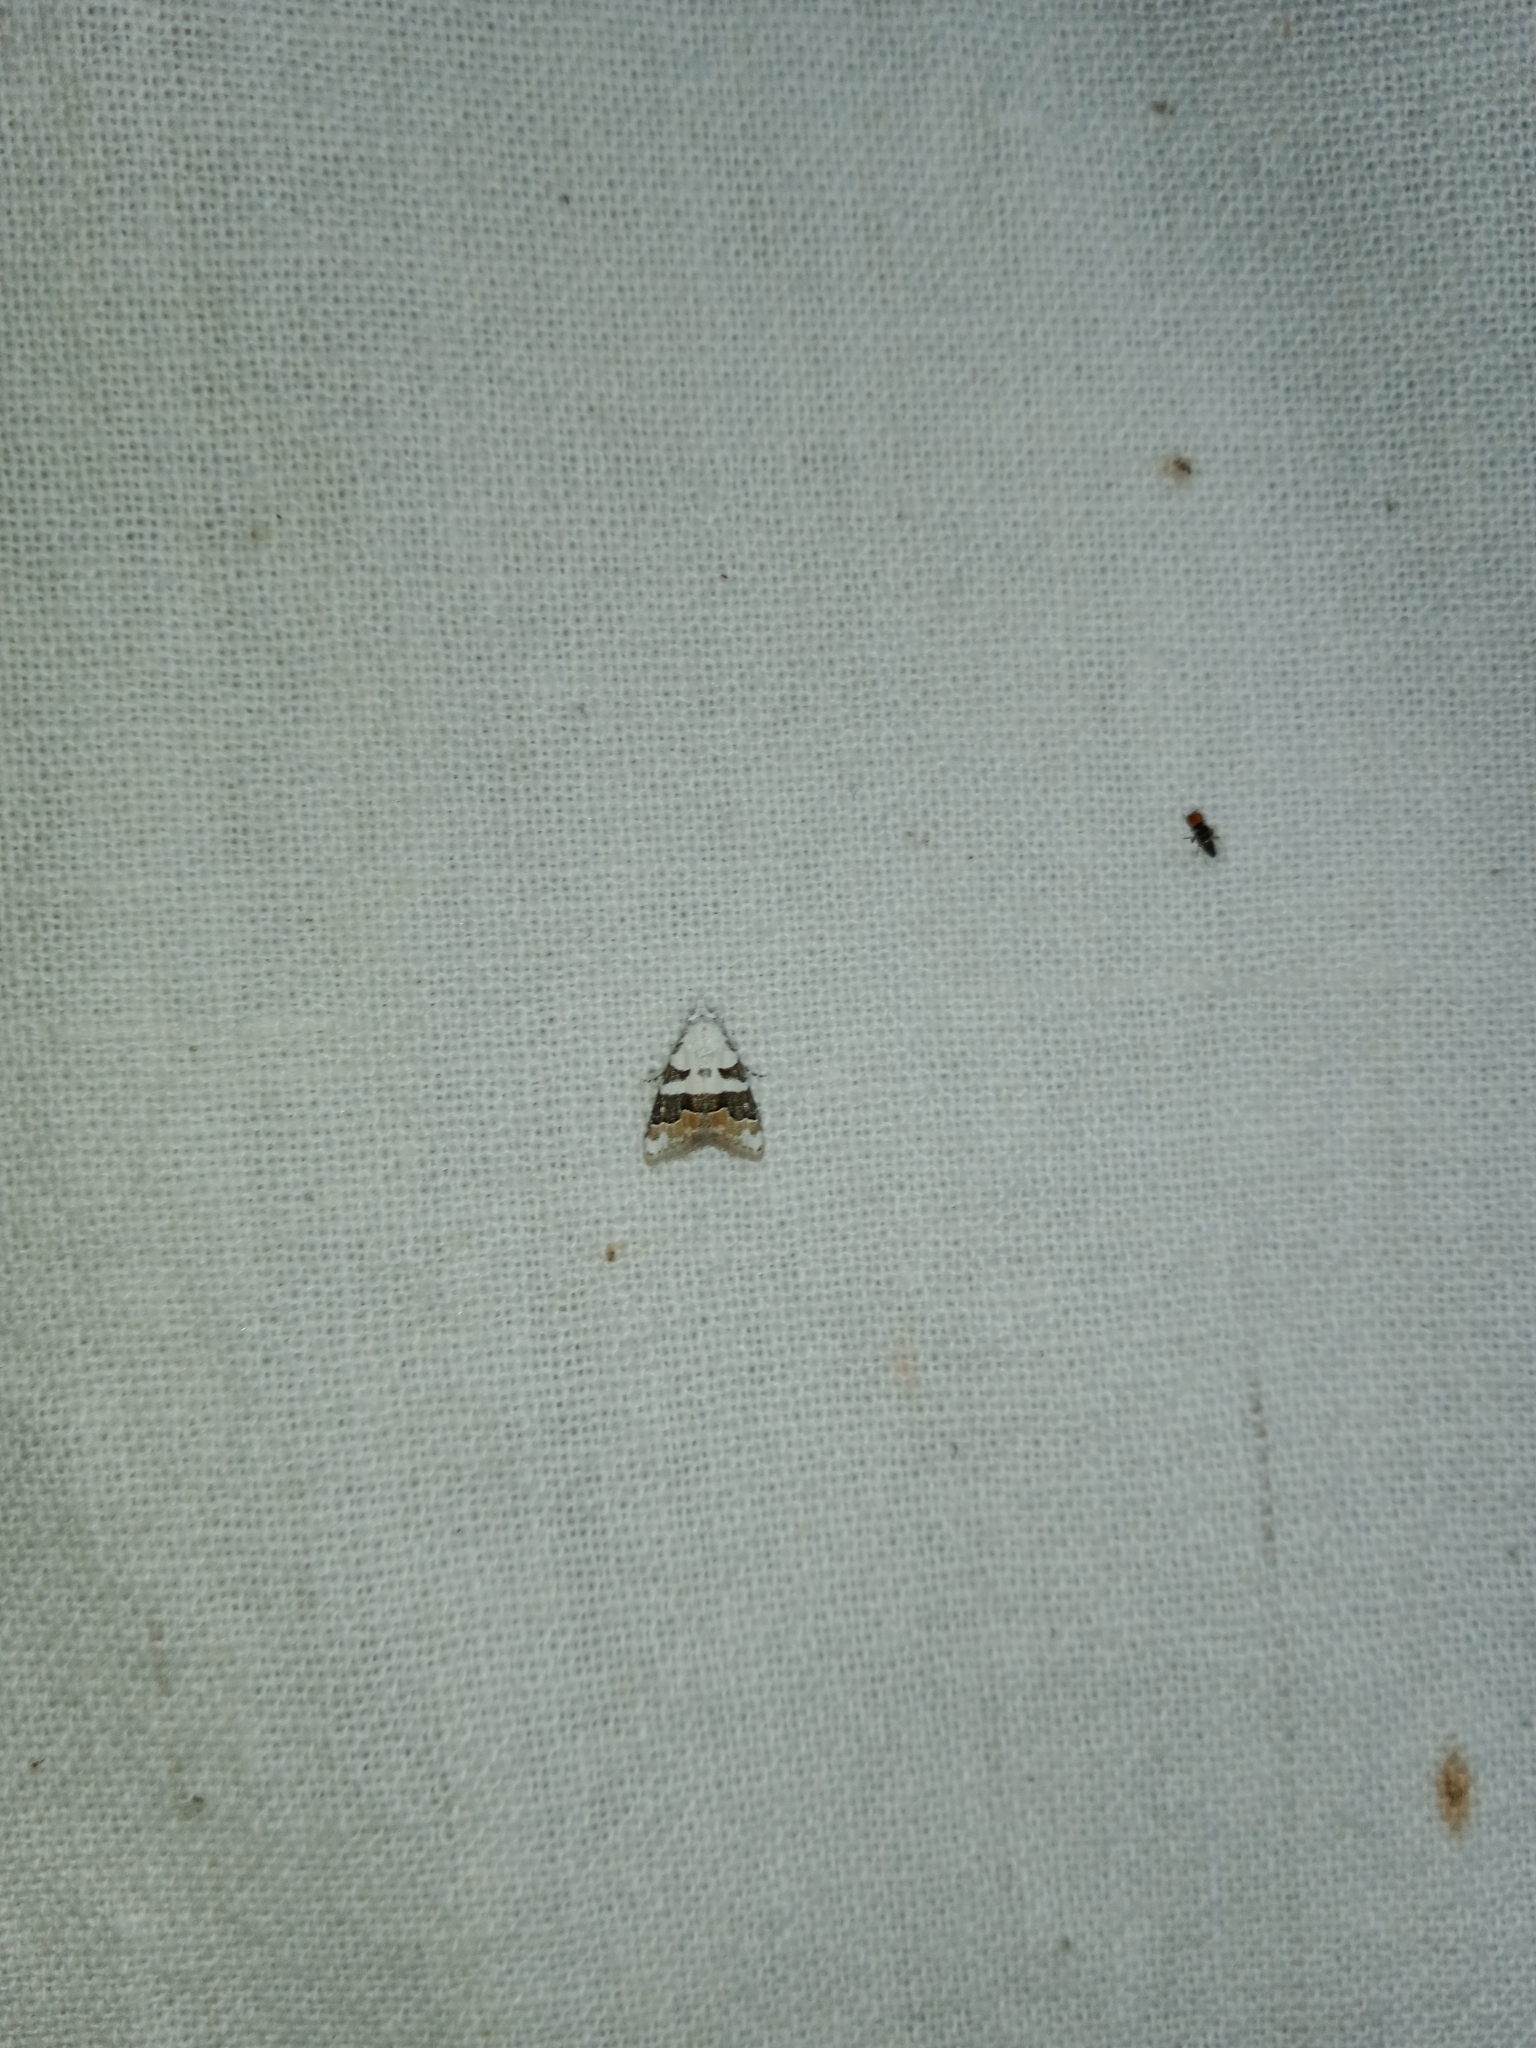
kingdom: Animalia
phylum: Arthropoda
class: Insecta
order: Lepidoptera
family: Nolidae
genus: Nola
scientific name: Nola lucidalis
